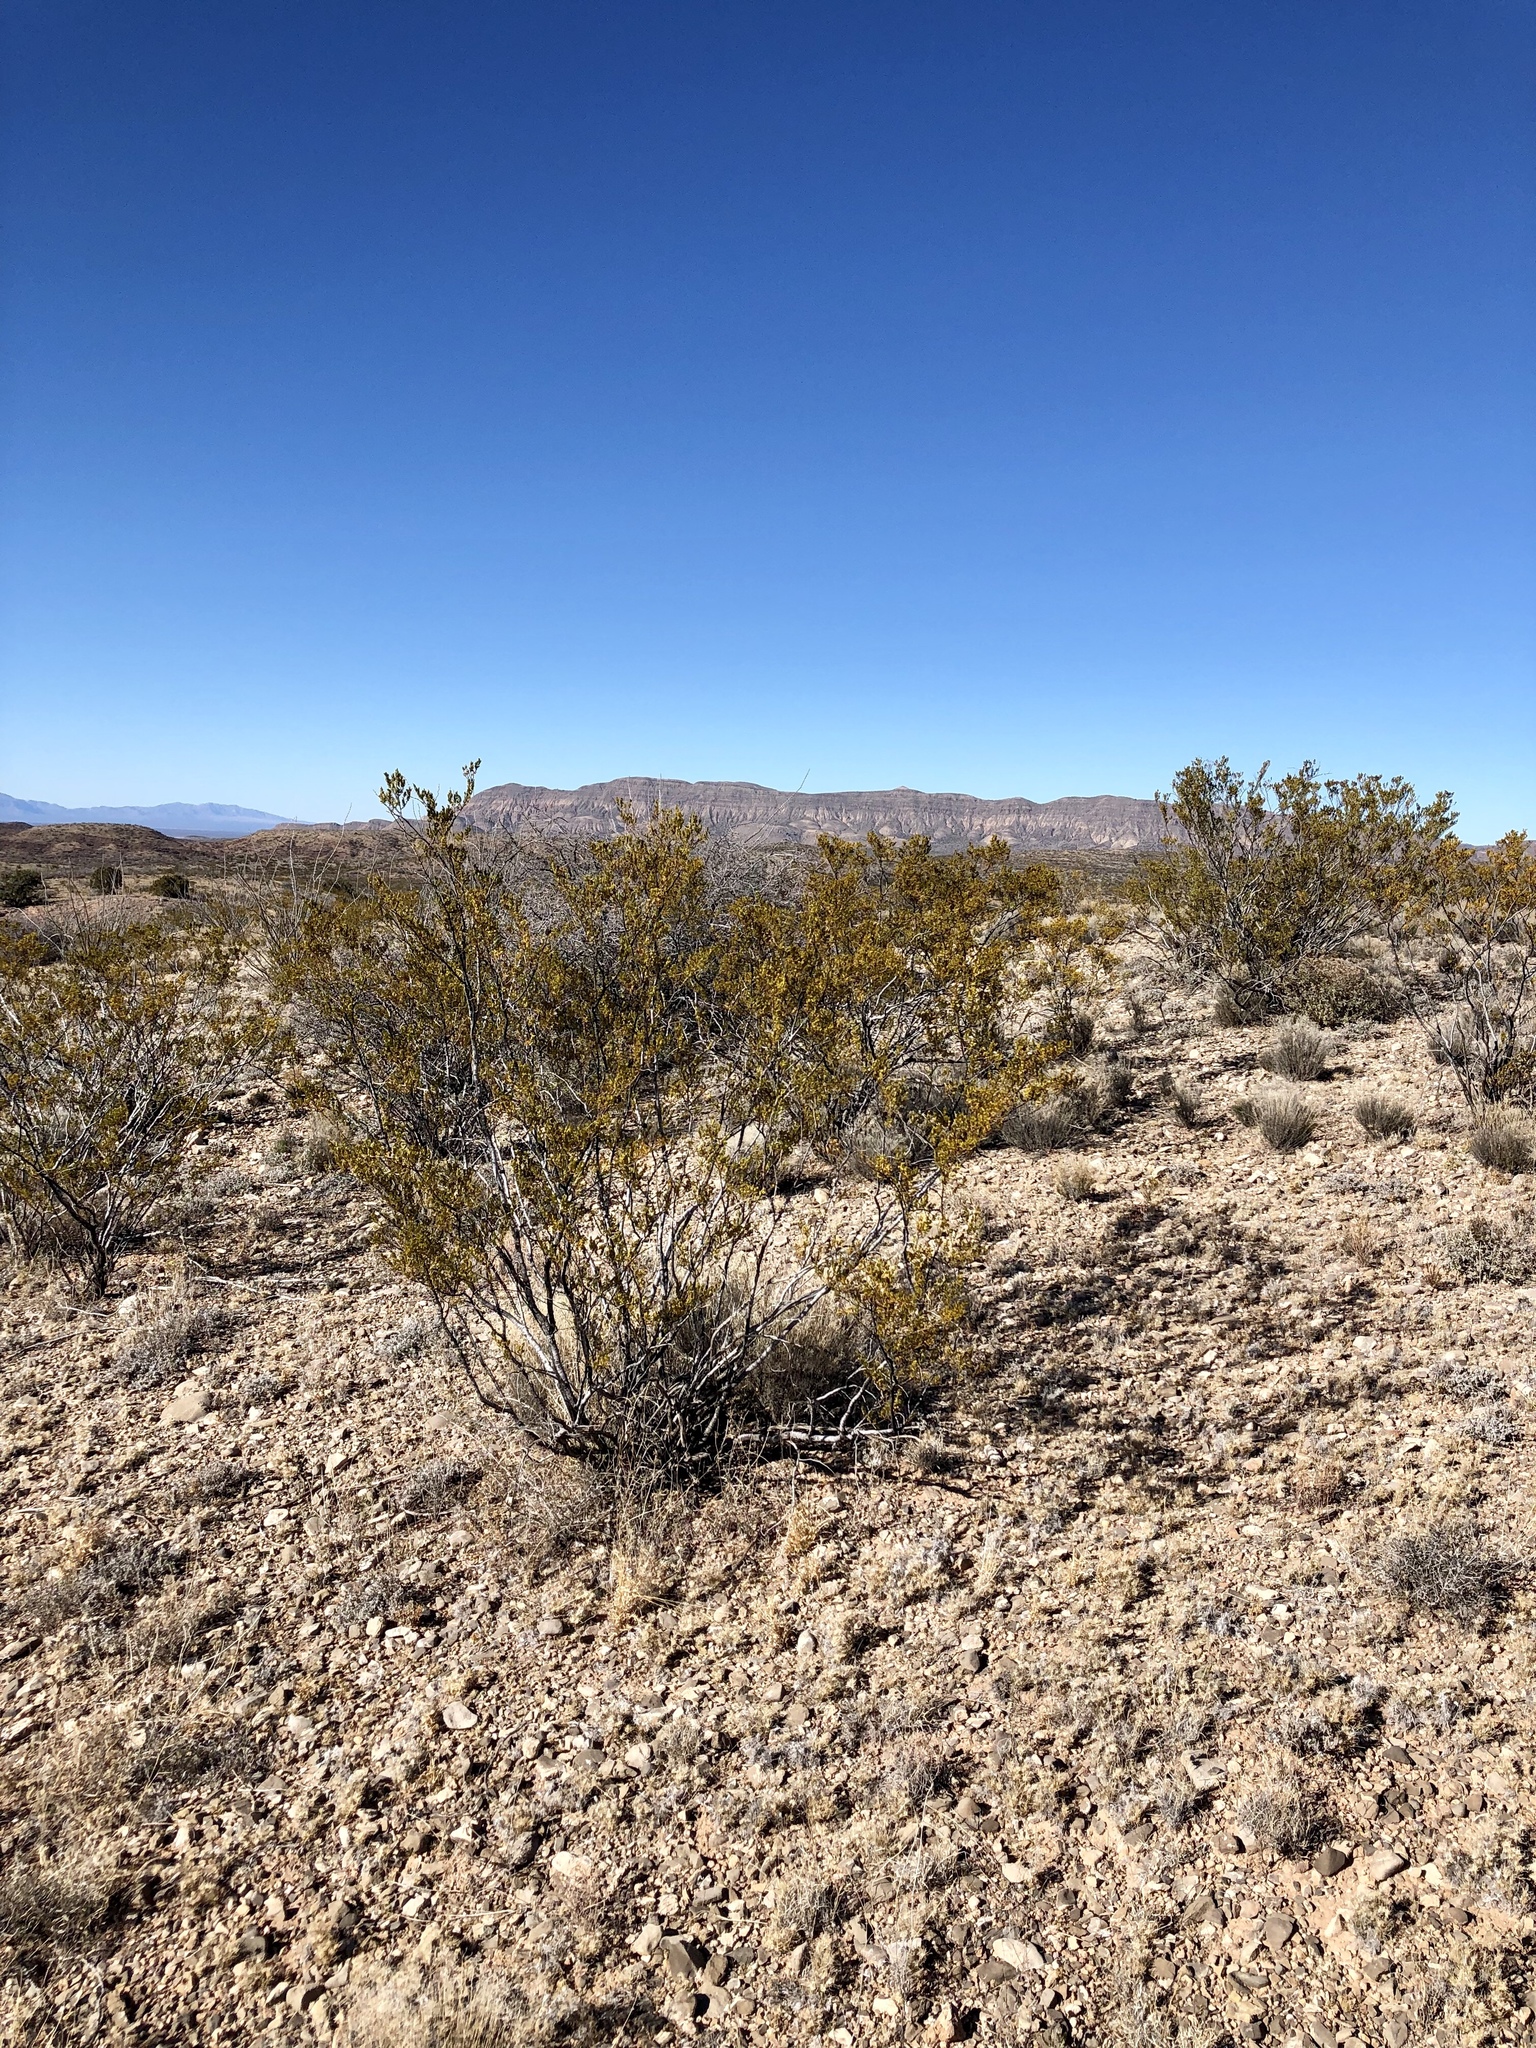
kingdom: Plantae
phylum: Tracheophyta
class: Magnoliopsida
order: Zygophyllales
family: Zygophyllaceae
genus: Larrea
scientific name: Larrea tridentata
